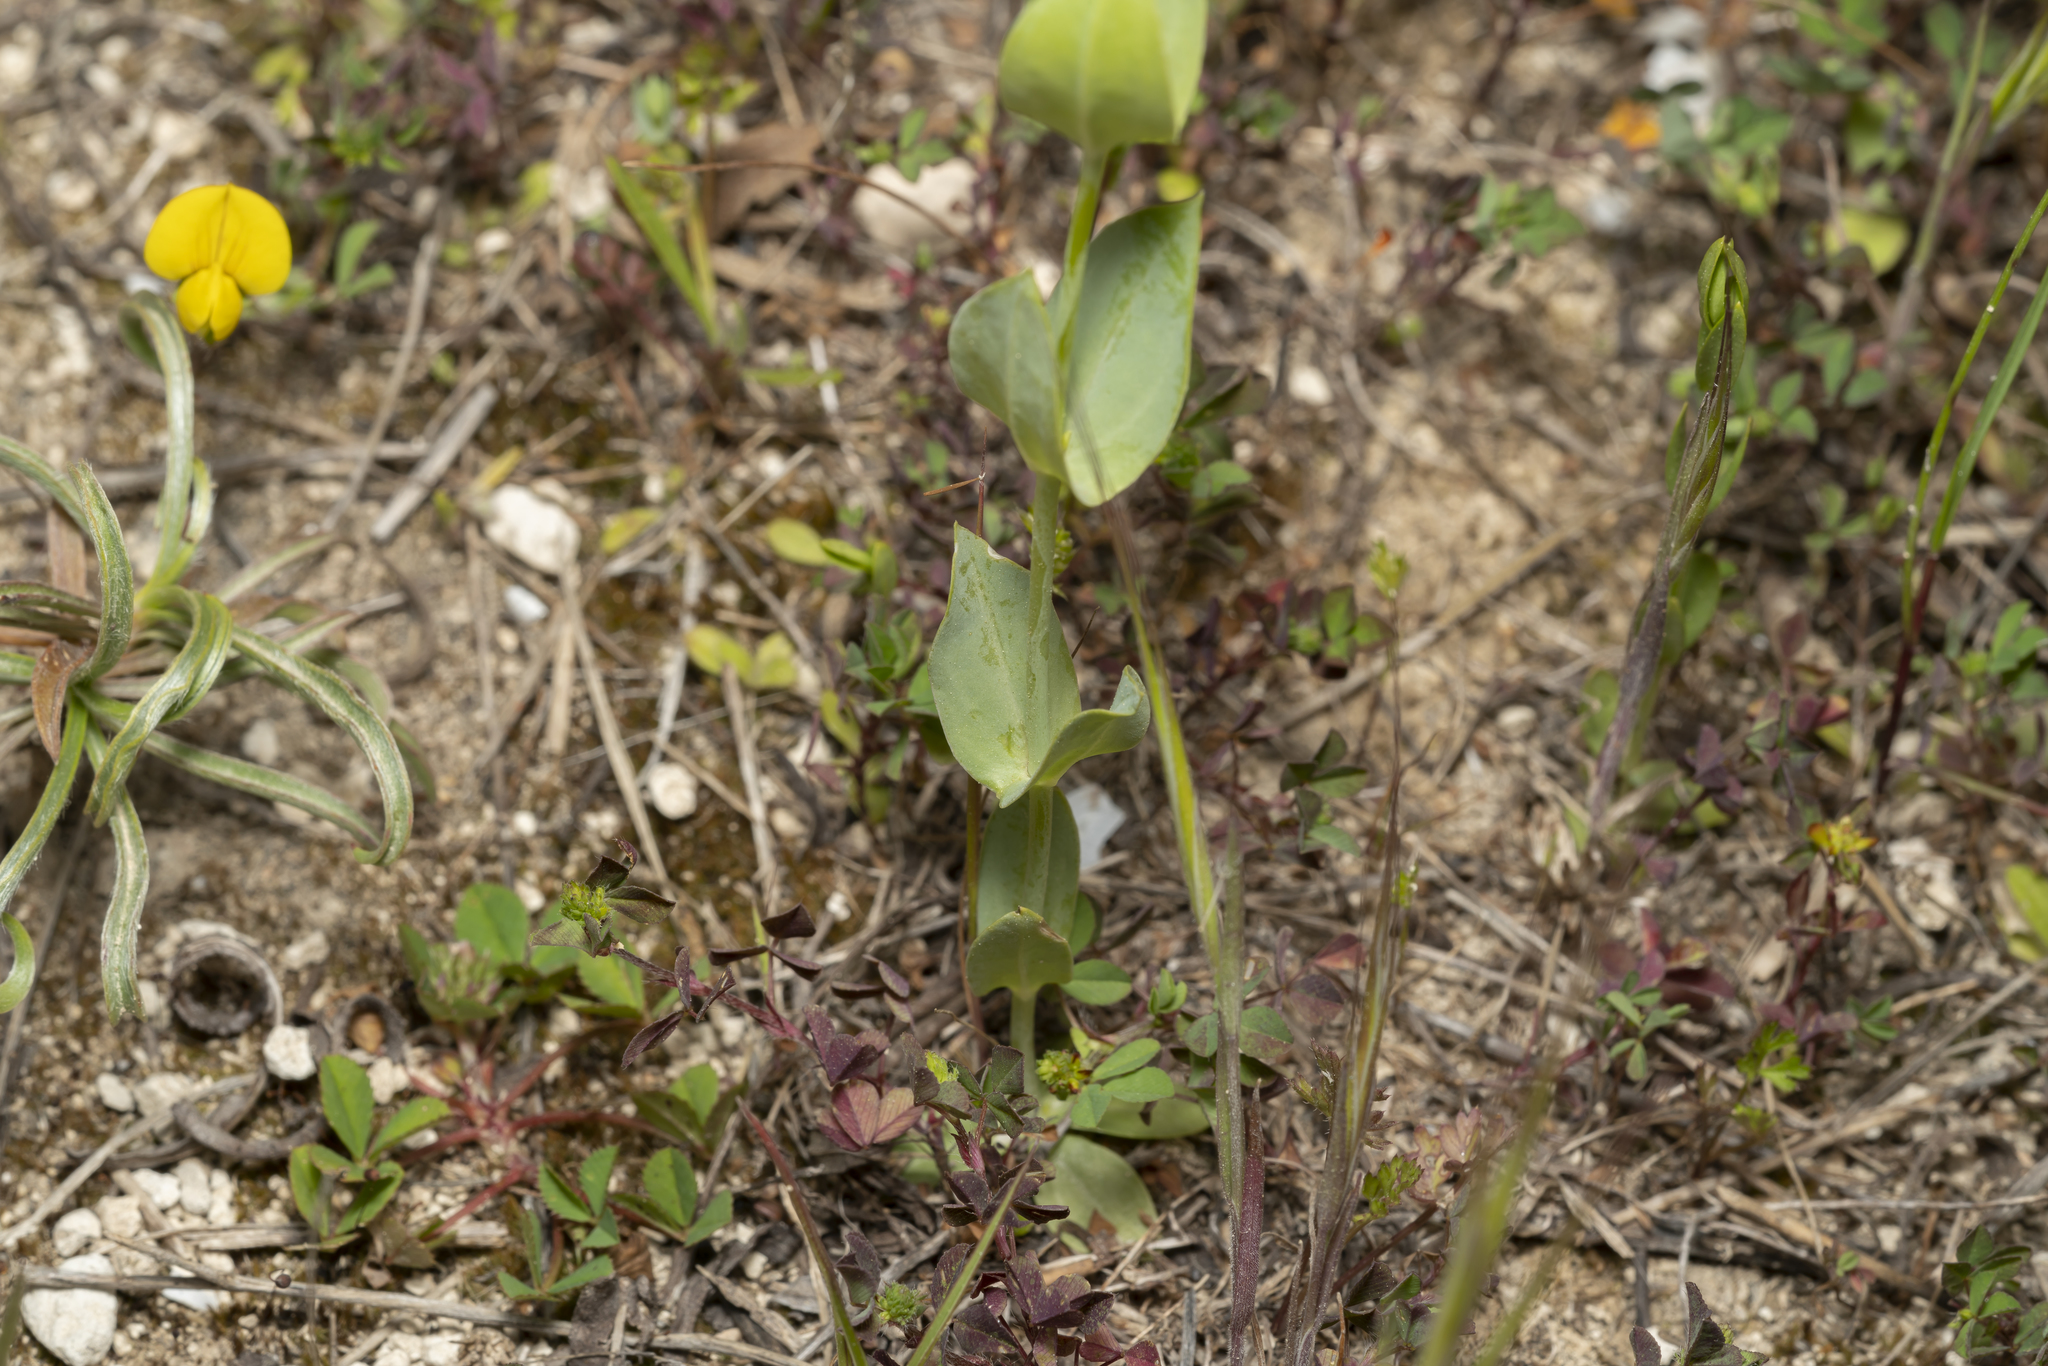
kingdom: Plantae
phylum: Tracheophyta
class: Magnoliopsida
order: Gentianales
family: Gentianaceae
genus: Blackstonia
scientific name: Blackstonia
